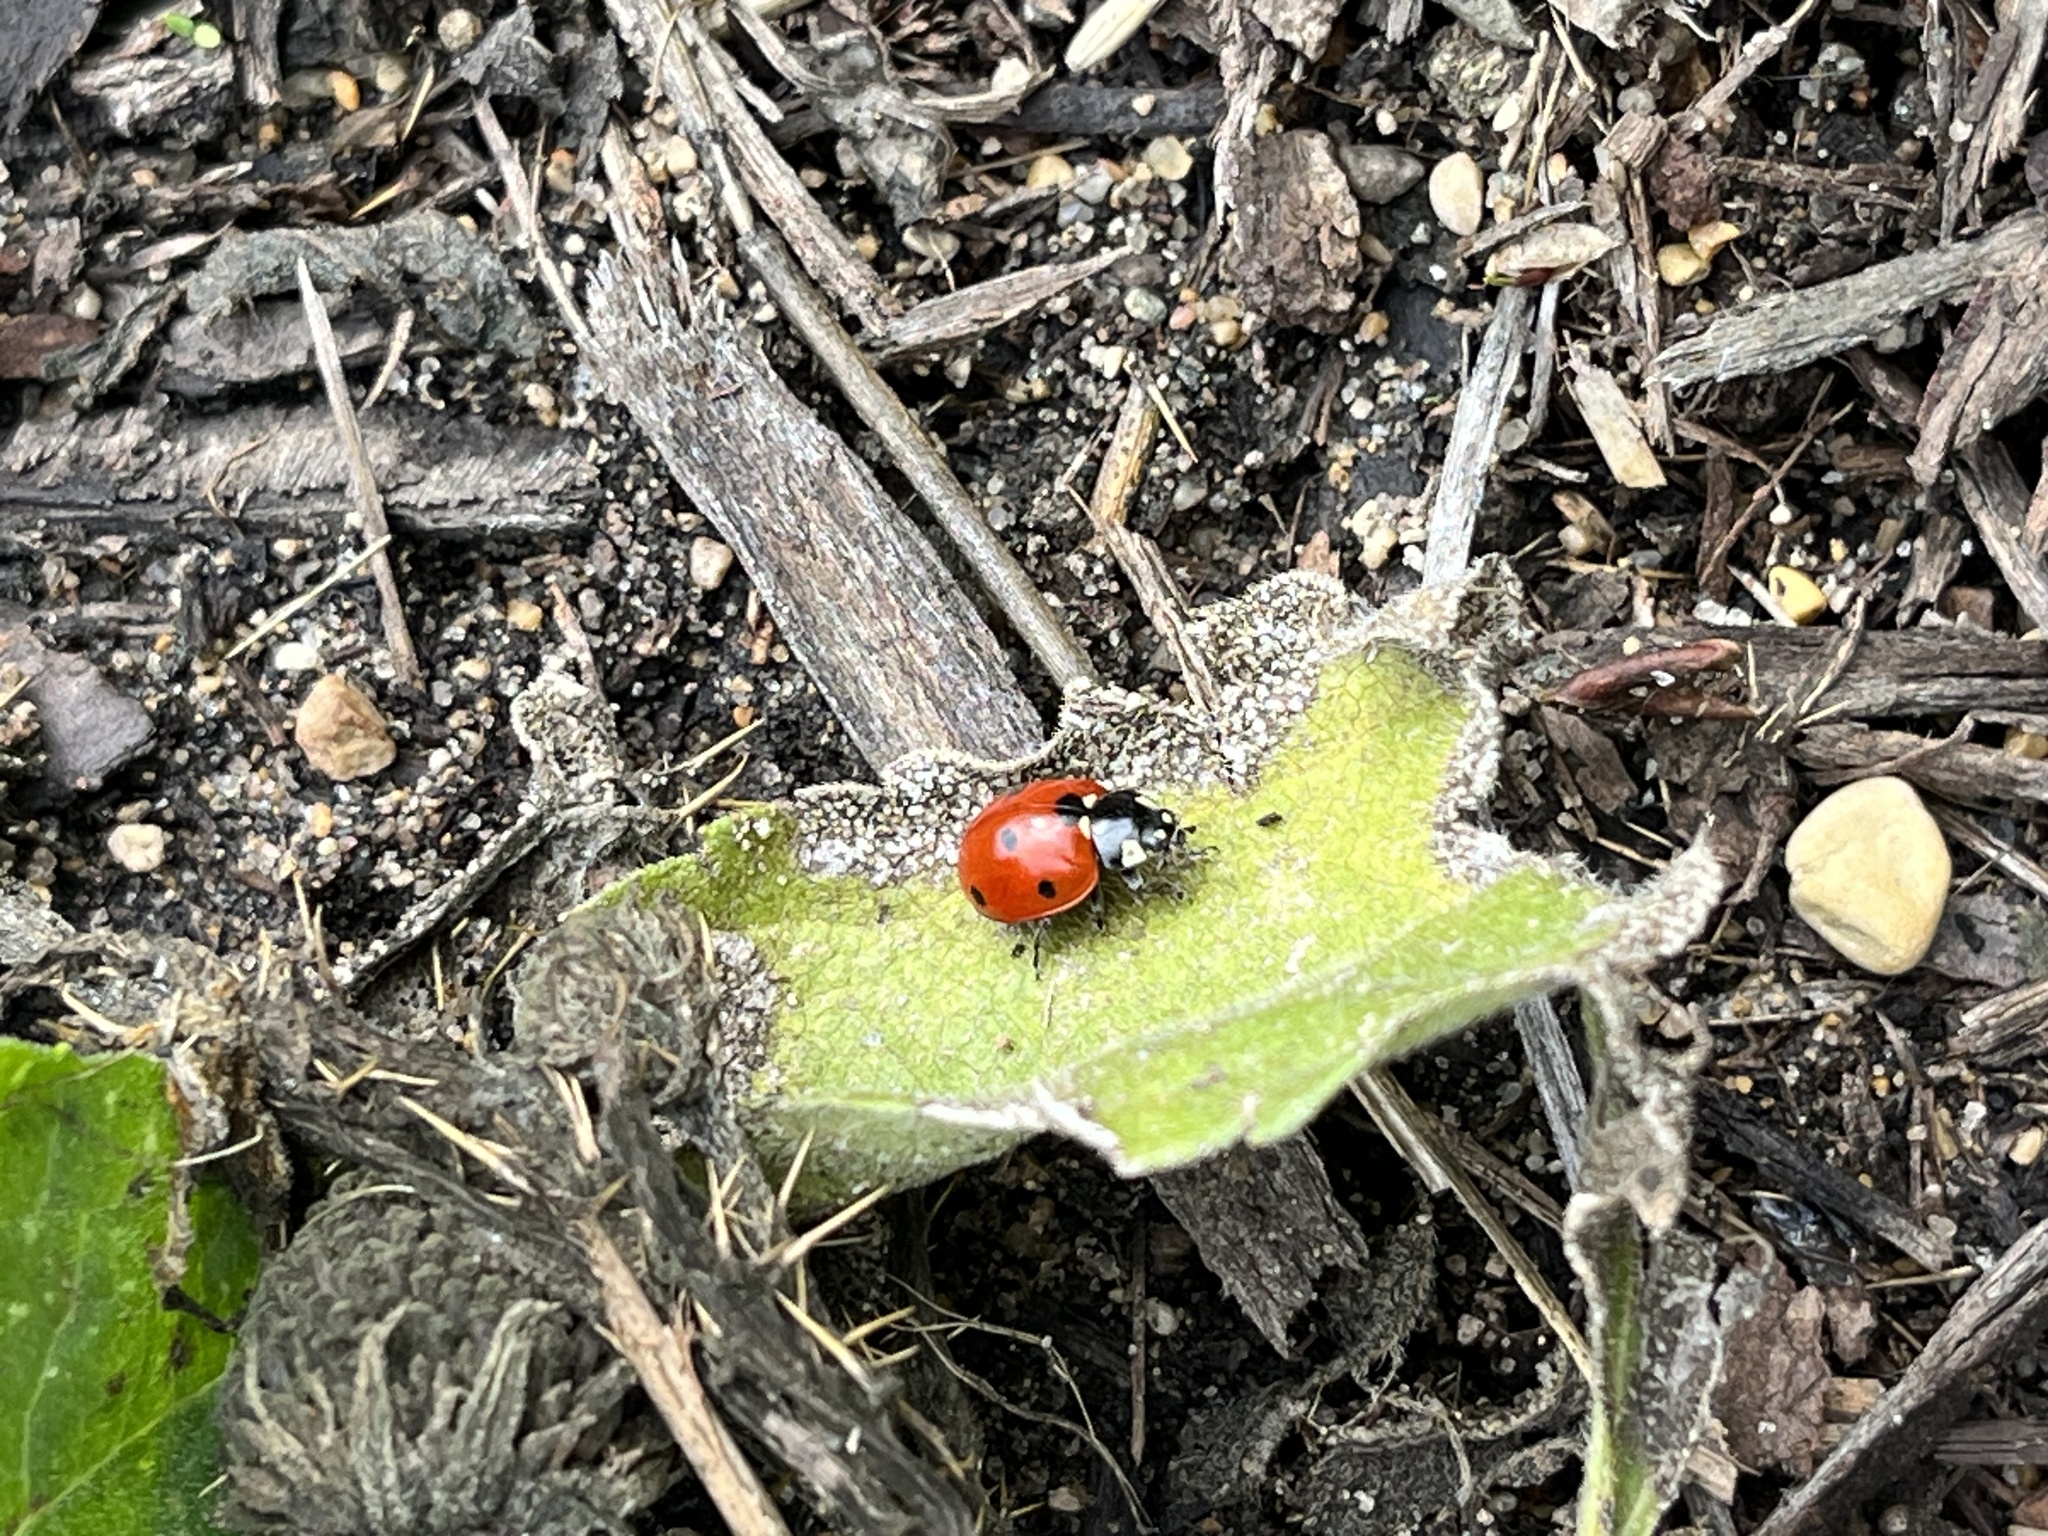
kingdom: Animalia
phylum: Arthropoda
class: Insecta
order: Coleoptera
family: Coccinellidae
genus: Coccinella
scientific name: Coccinella septempunctata
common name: Sevenspotted lady beetle
